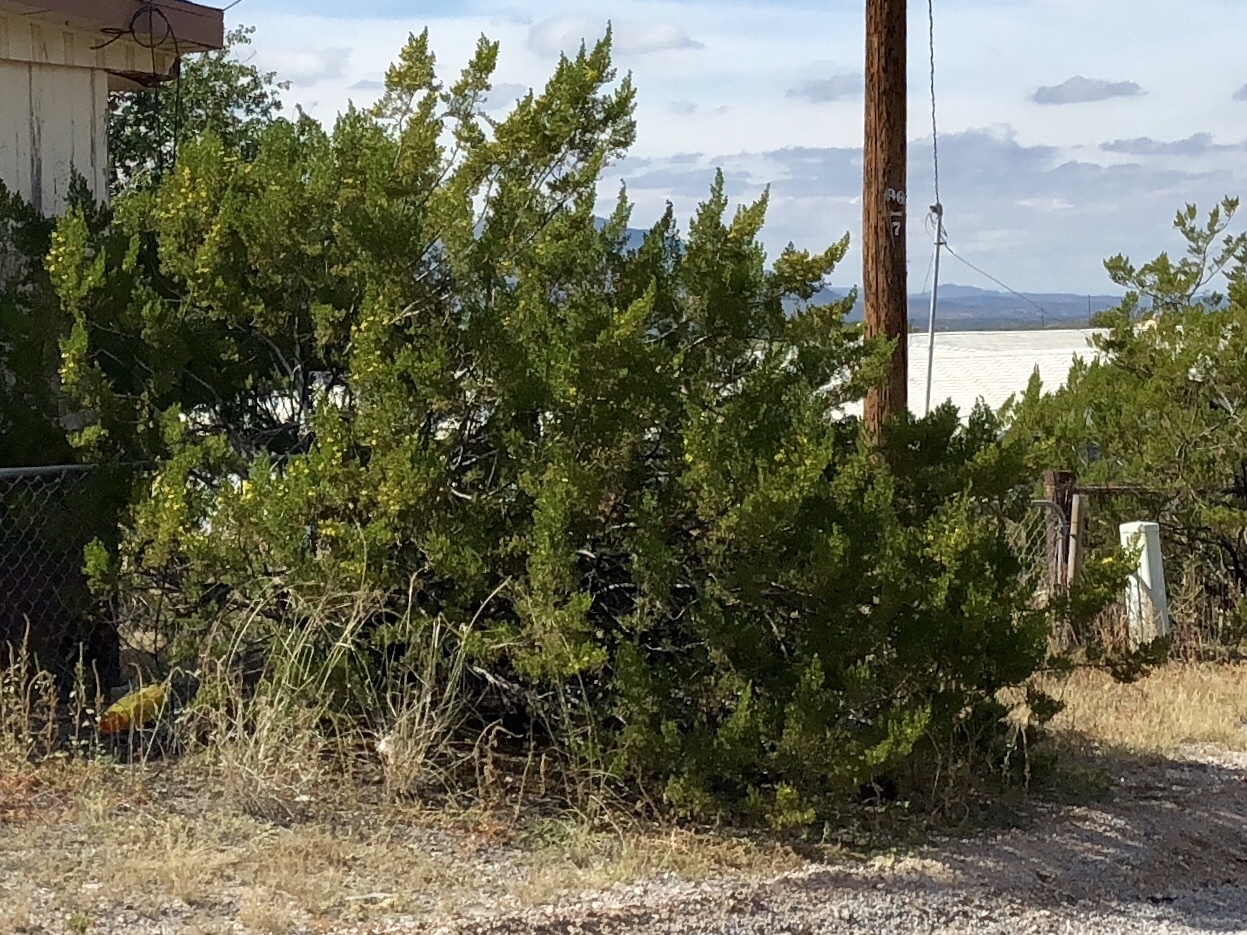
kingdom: Plantae
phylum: Tracheophyta
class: Magnoliopsida
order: Zygophyllales
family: Zygophyllaceae
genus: Larrea
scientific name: Larrea tridentata
